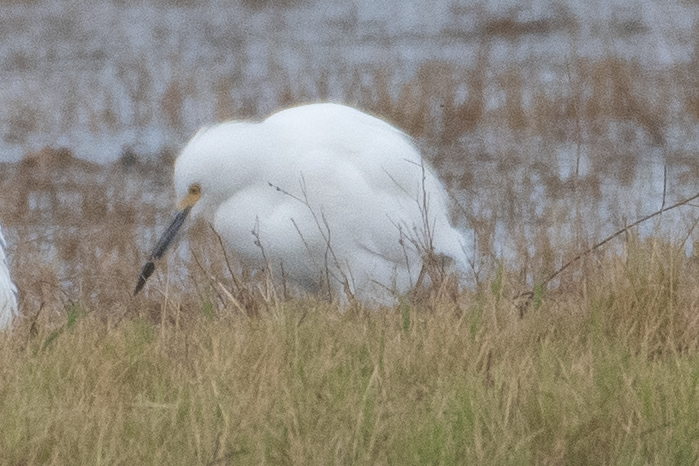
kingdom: Animalia
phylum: Chordata
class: Aves
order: Pelecaniformes
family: Ardeidae
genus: Egretta
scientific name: Egretta thula
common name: Snowy egret
